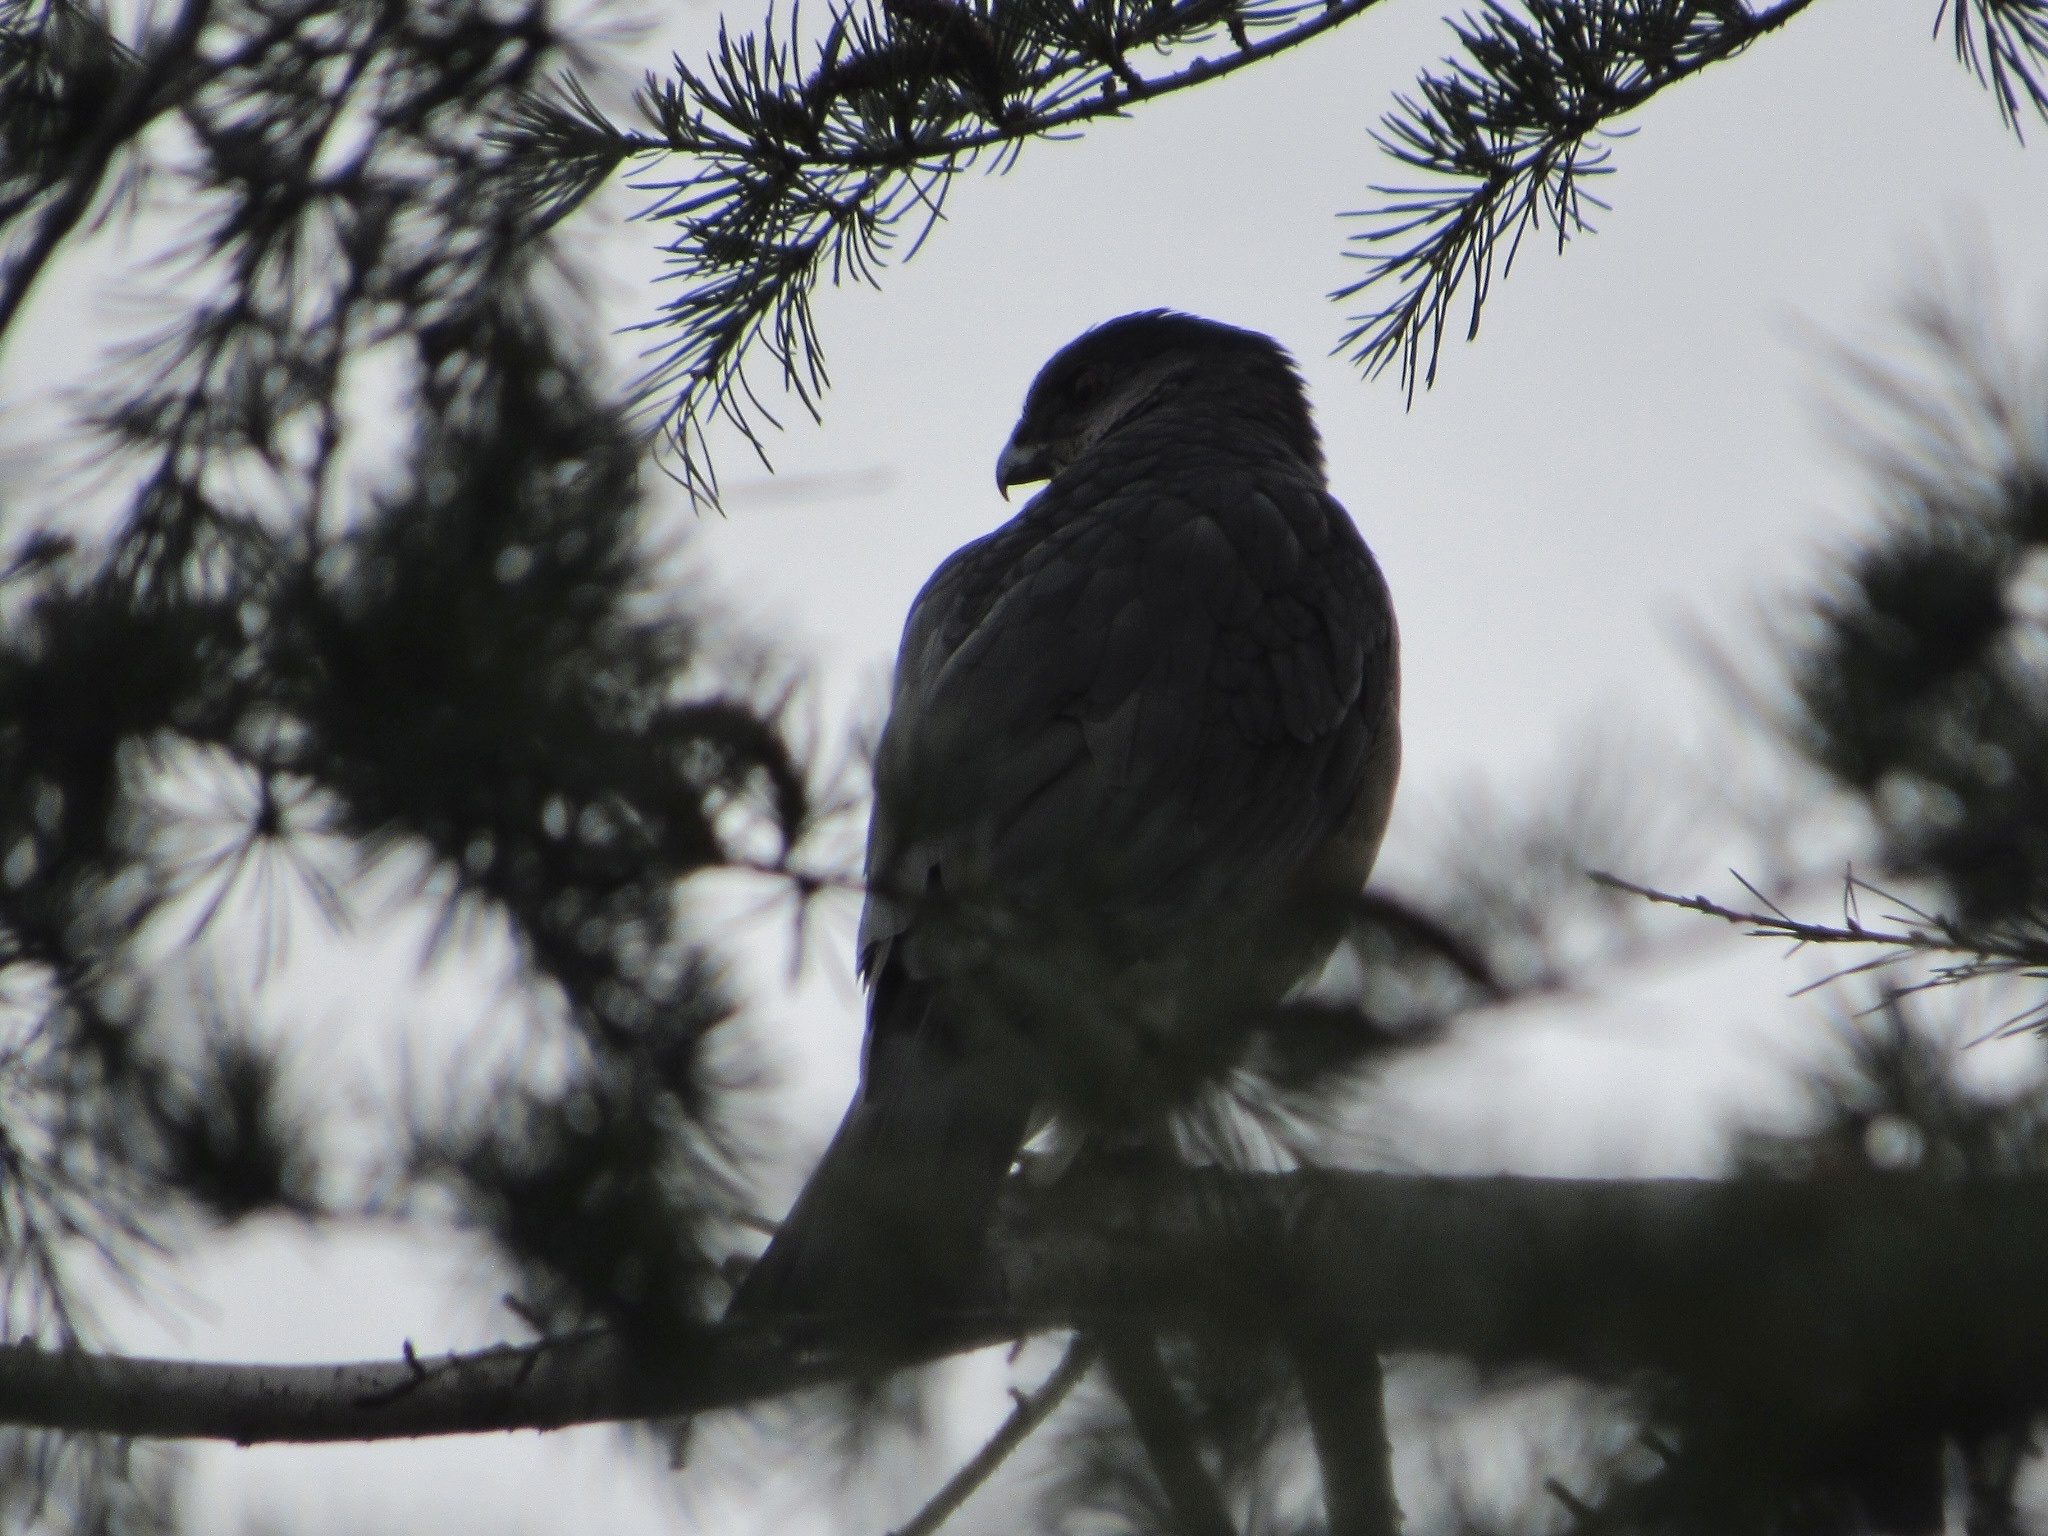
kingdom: Animalia
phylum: Chordata
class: Aves
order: Accipitriformes
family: Accipitridae
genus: Accipiter
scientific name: Accipiter cooperii
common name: Cooper's hawk
